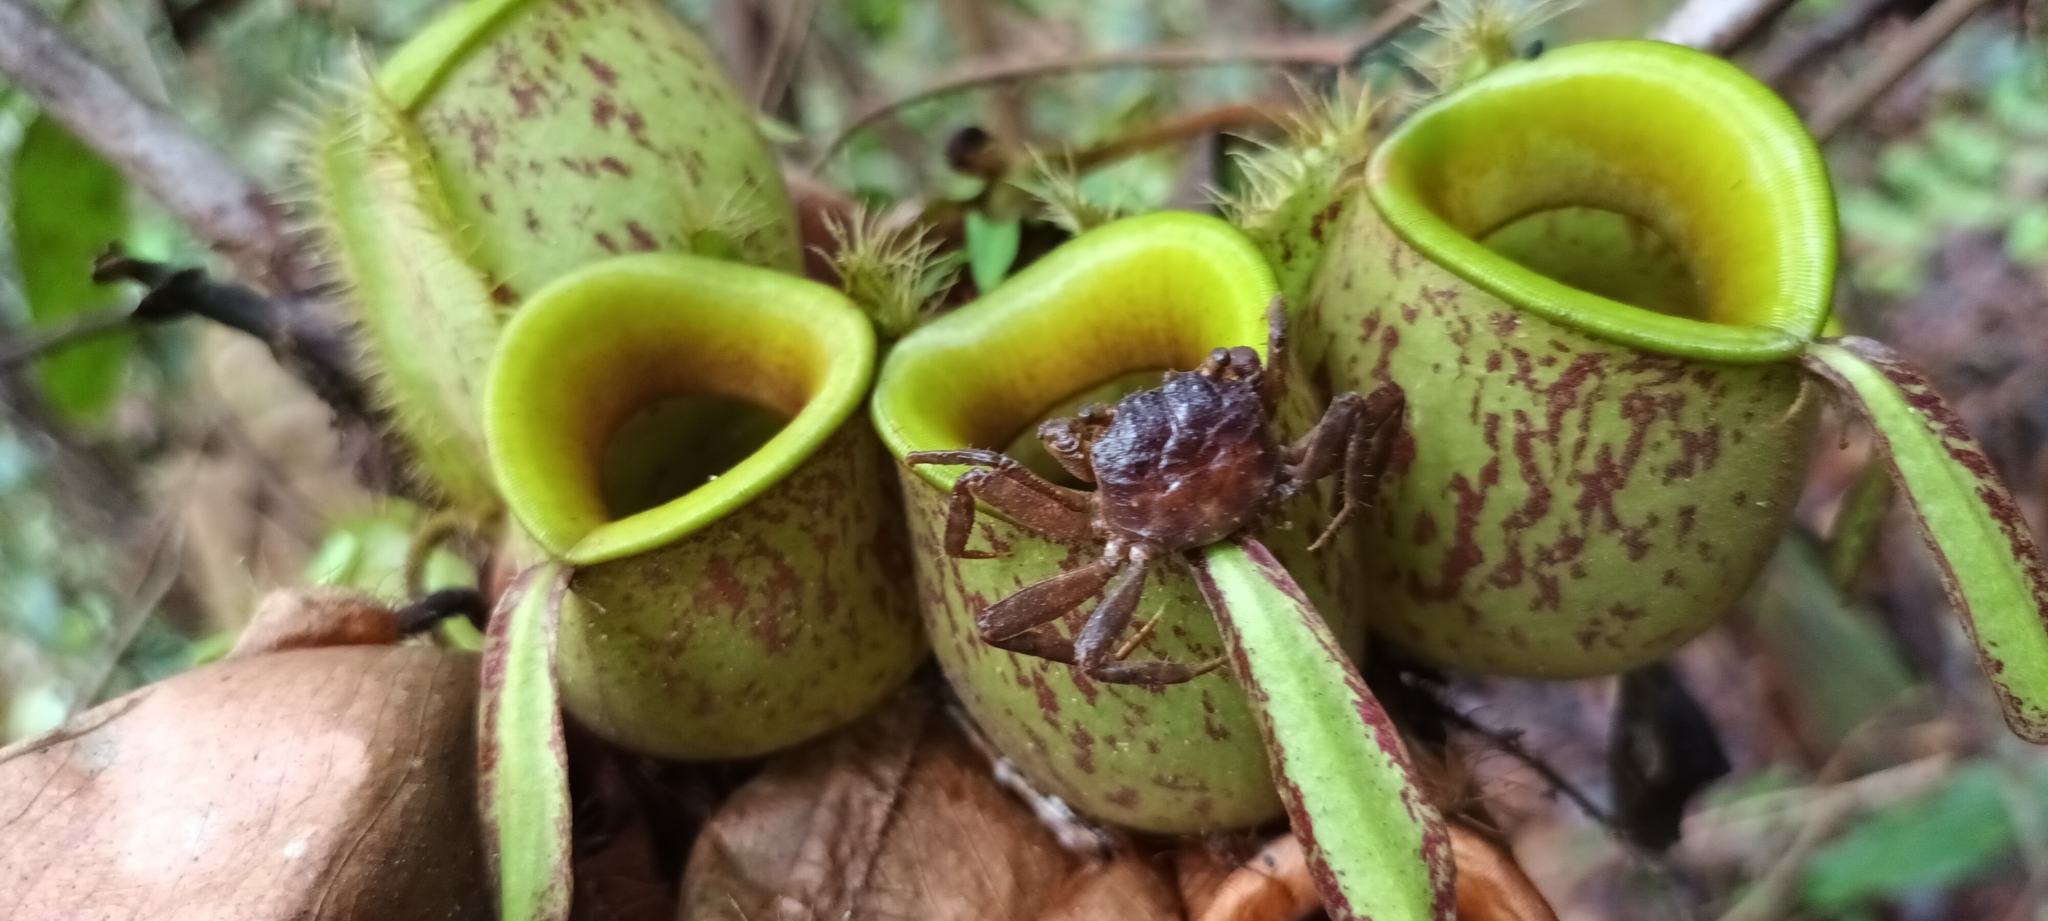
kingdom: Animalia
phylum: Arthropoda
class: Malacostraca
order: Decapoda
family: Sesarmidae
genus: Geosesarma
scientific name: Geosesarma peraccae
